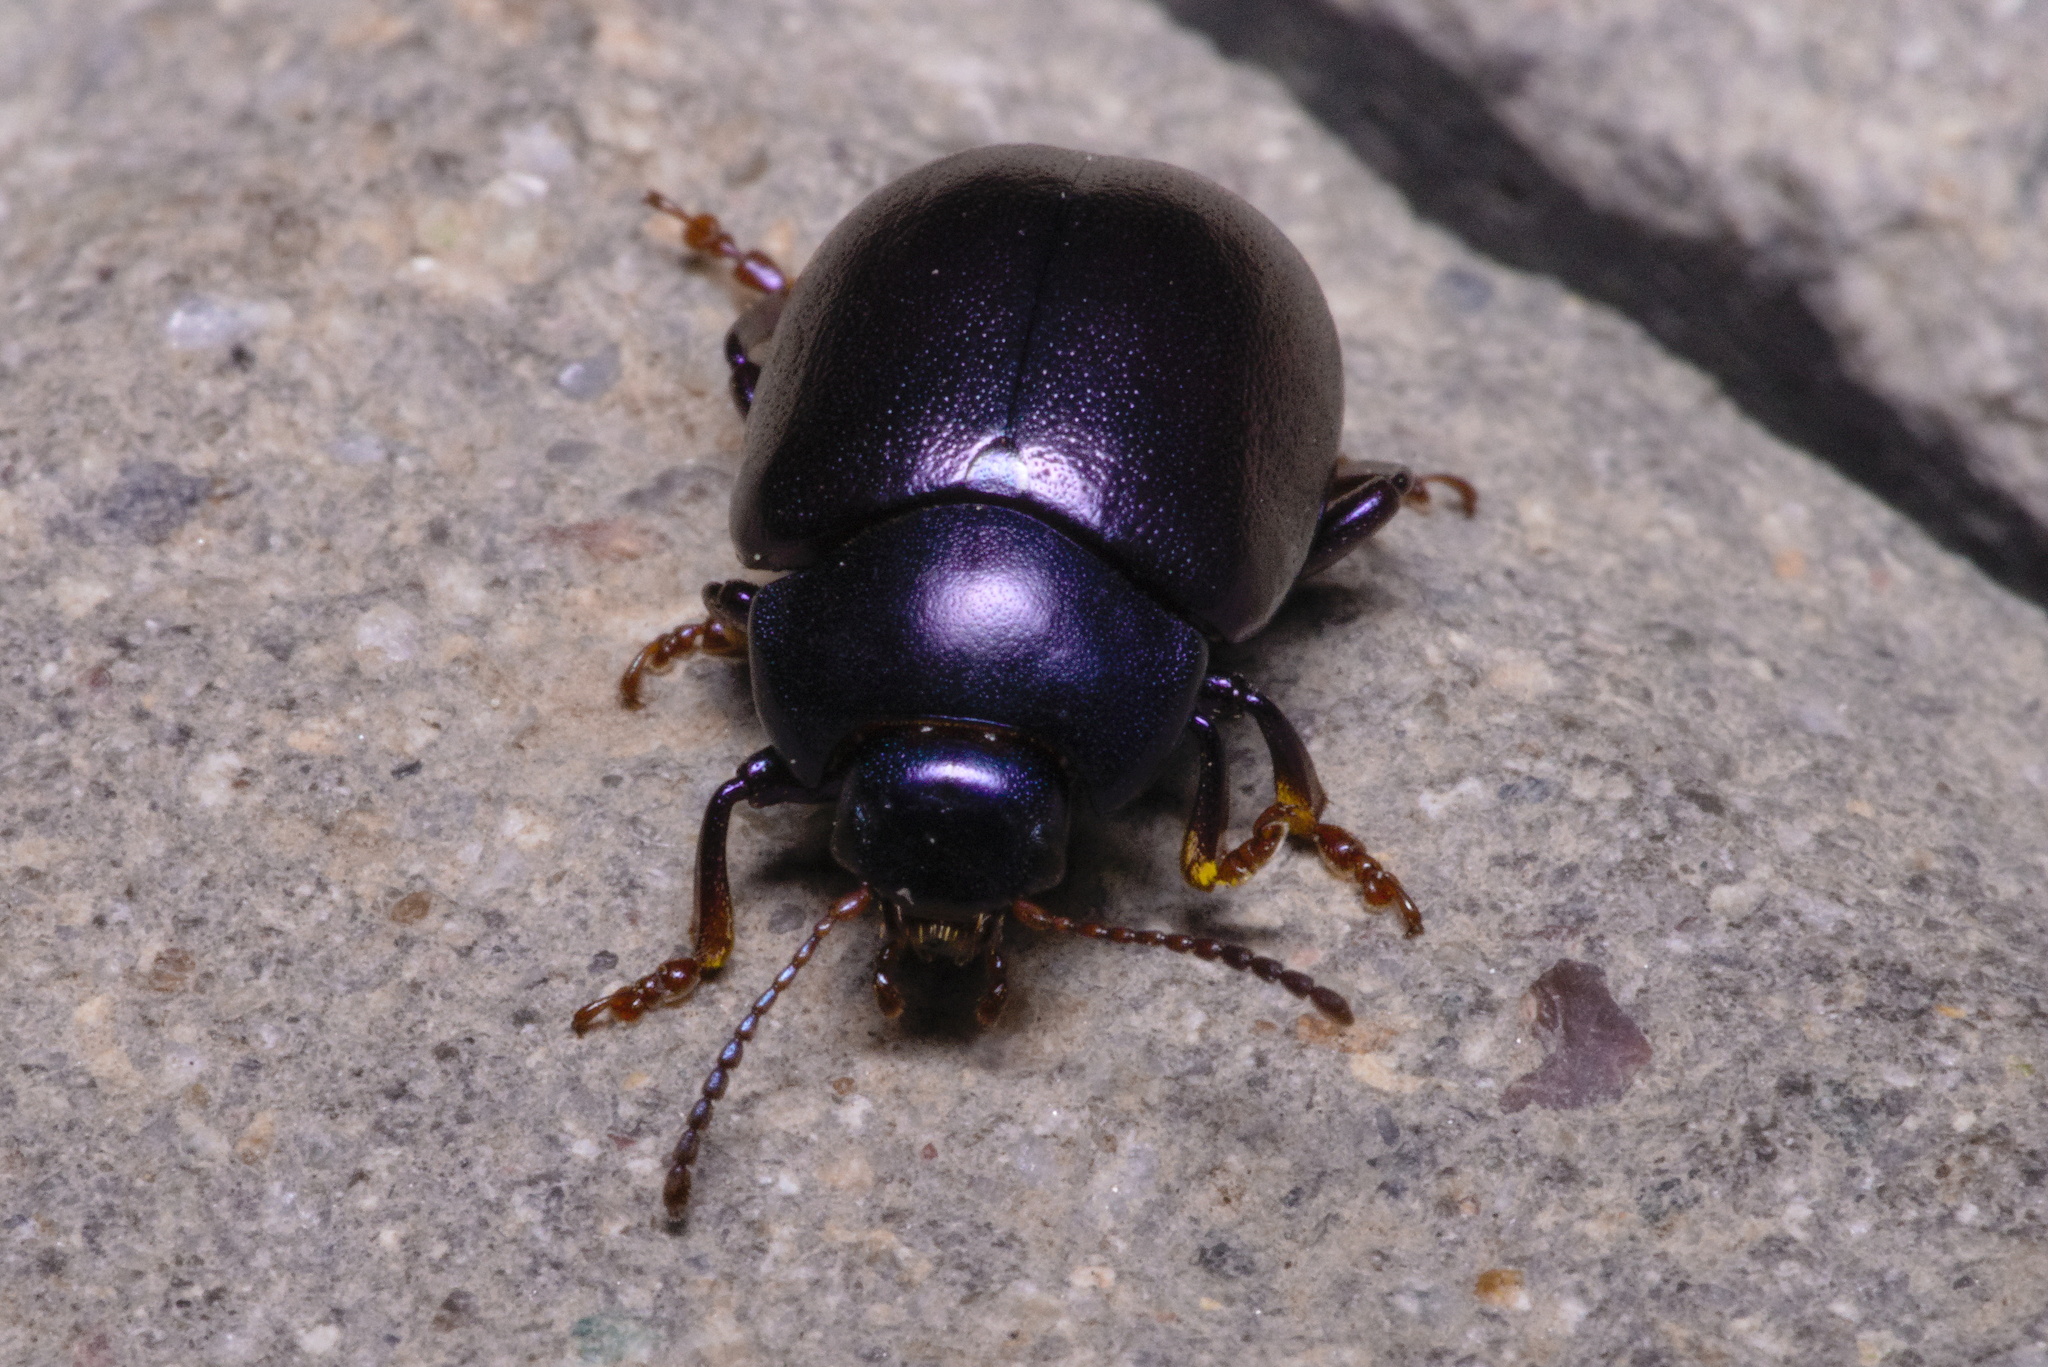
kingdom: Animalia
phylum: Arthropoda
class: Insecta
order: Coleoptera
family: Chrysomelidae
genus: Chrysolina
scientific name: Chrysolina sturmi
